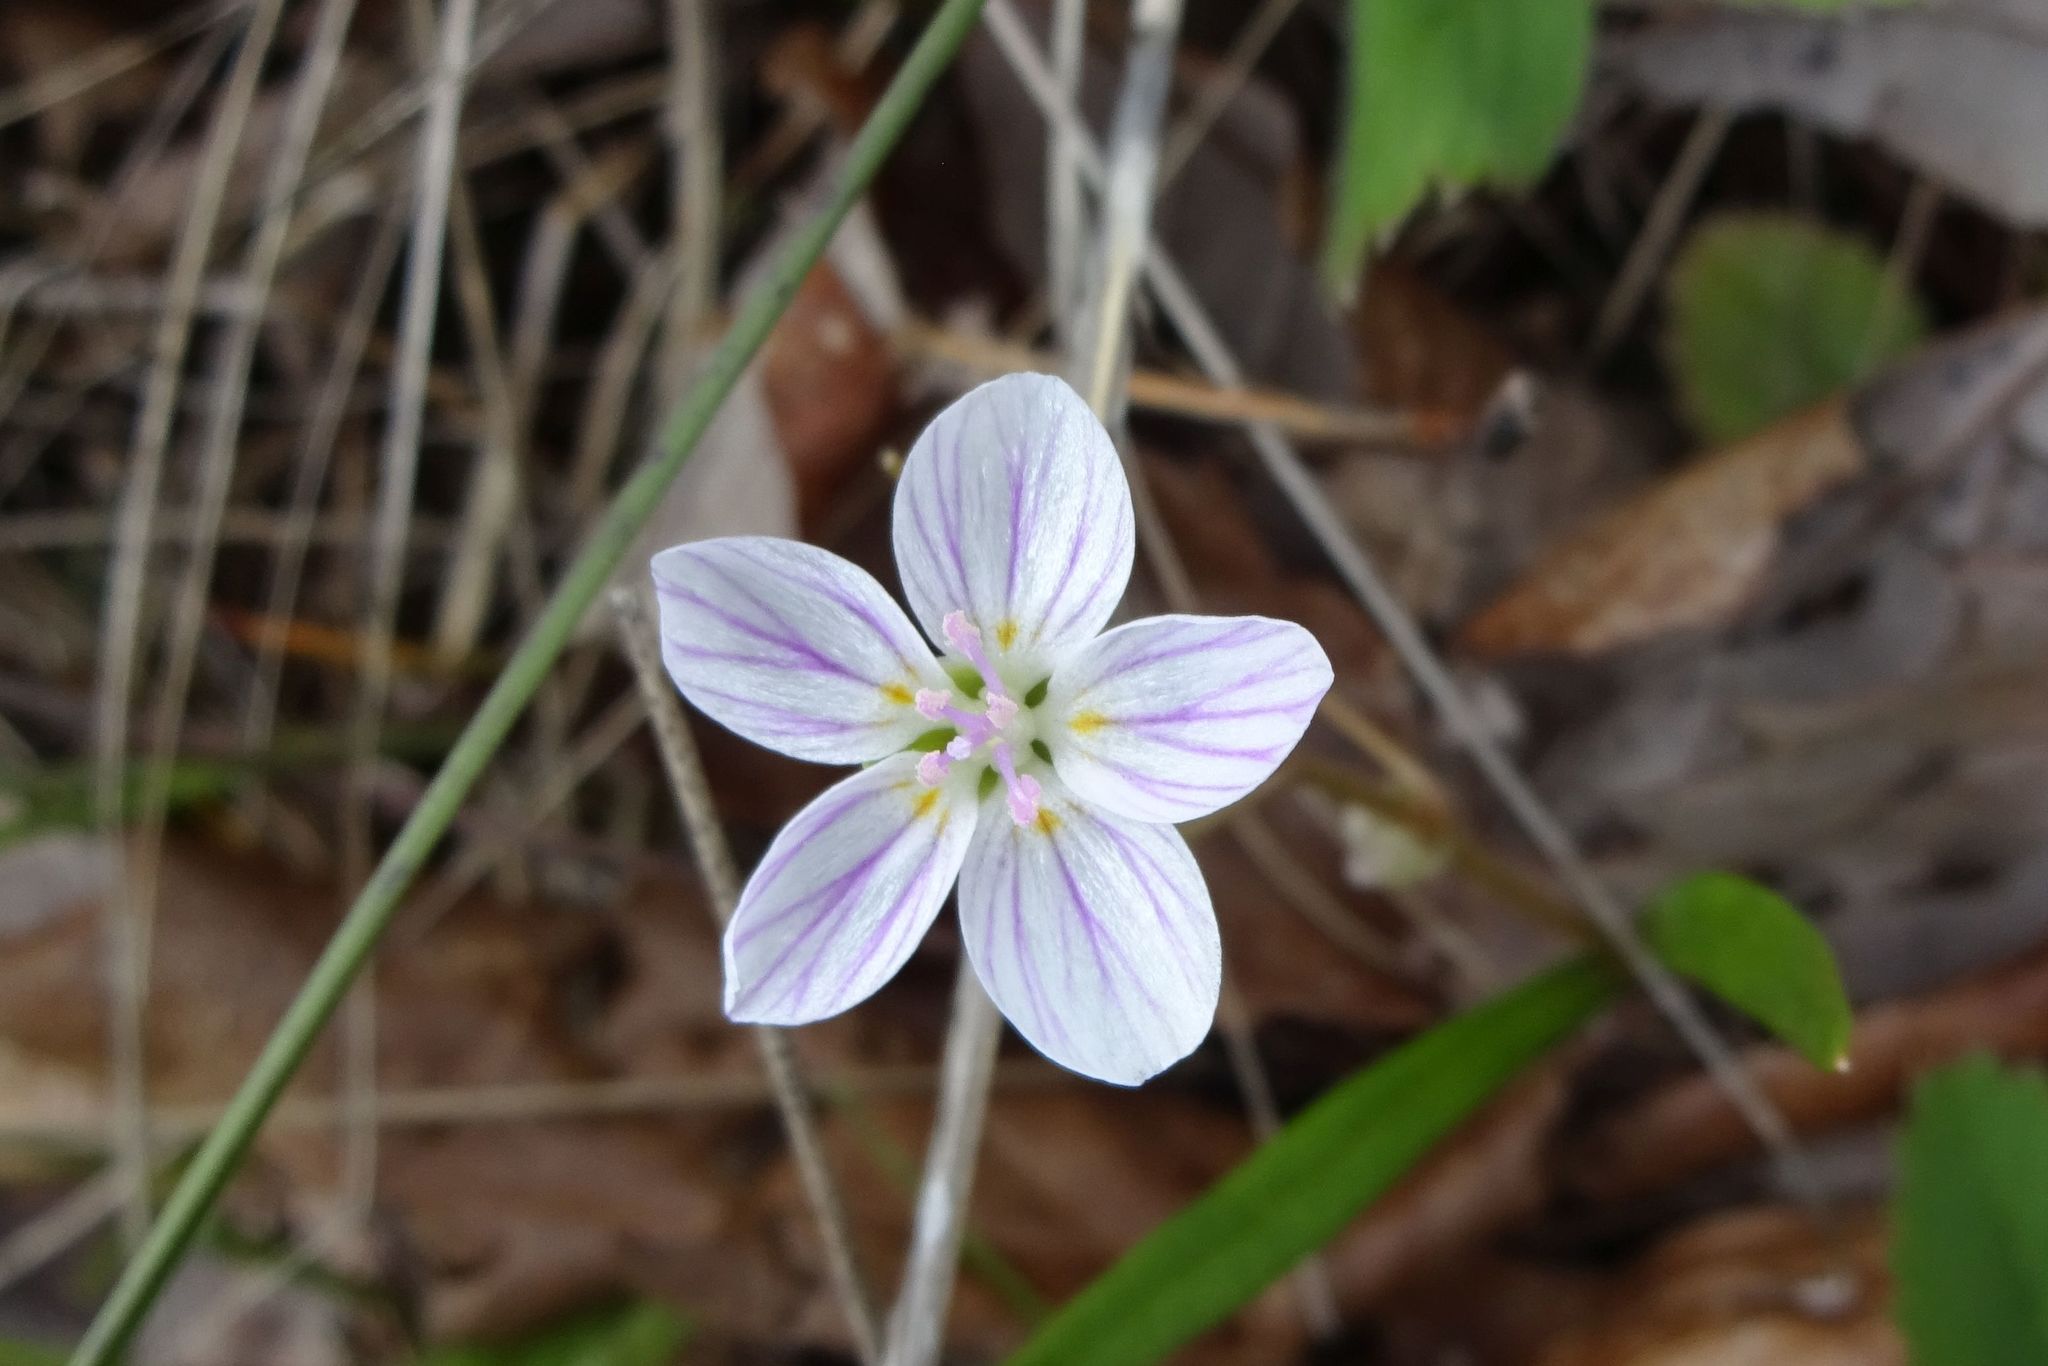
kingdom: Plantae
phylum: Tracheophyta
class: Magnoliopsida
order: Caryophyllales
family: Montiaceae
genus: Claytonia
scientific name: Claytonia virginica
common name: Virginia springbeauty
